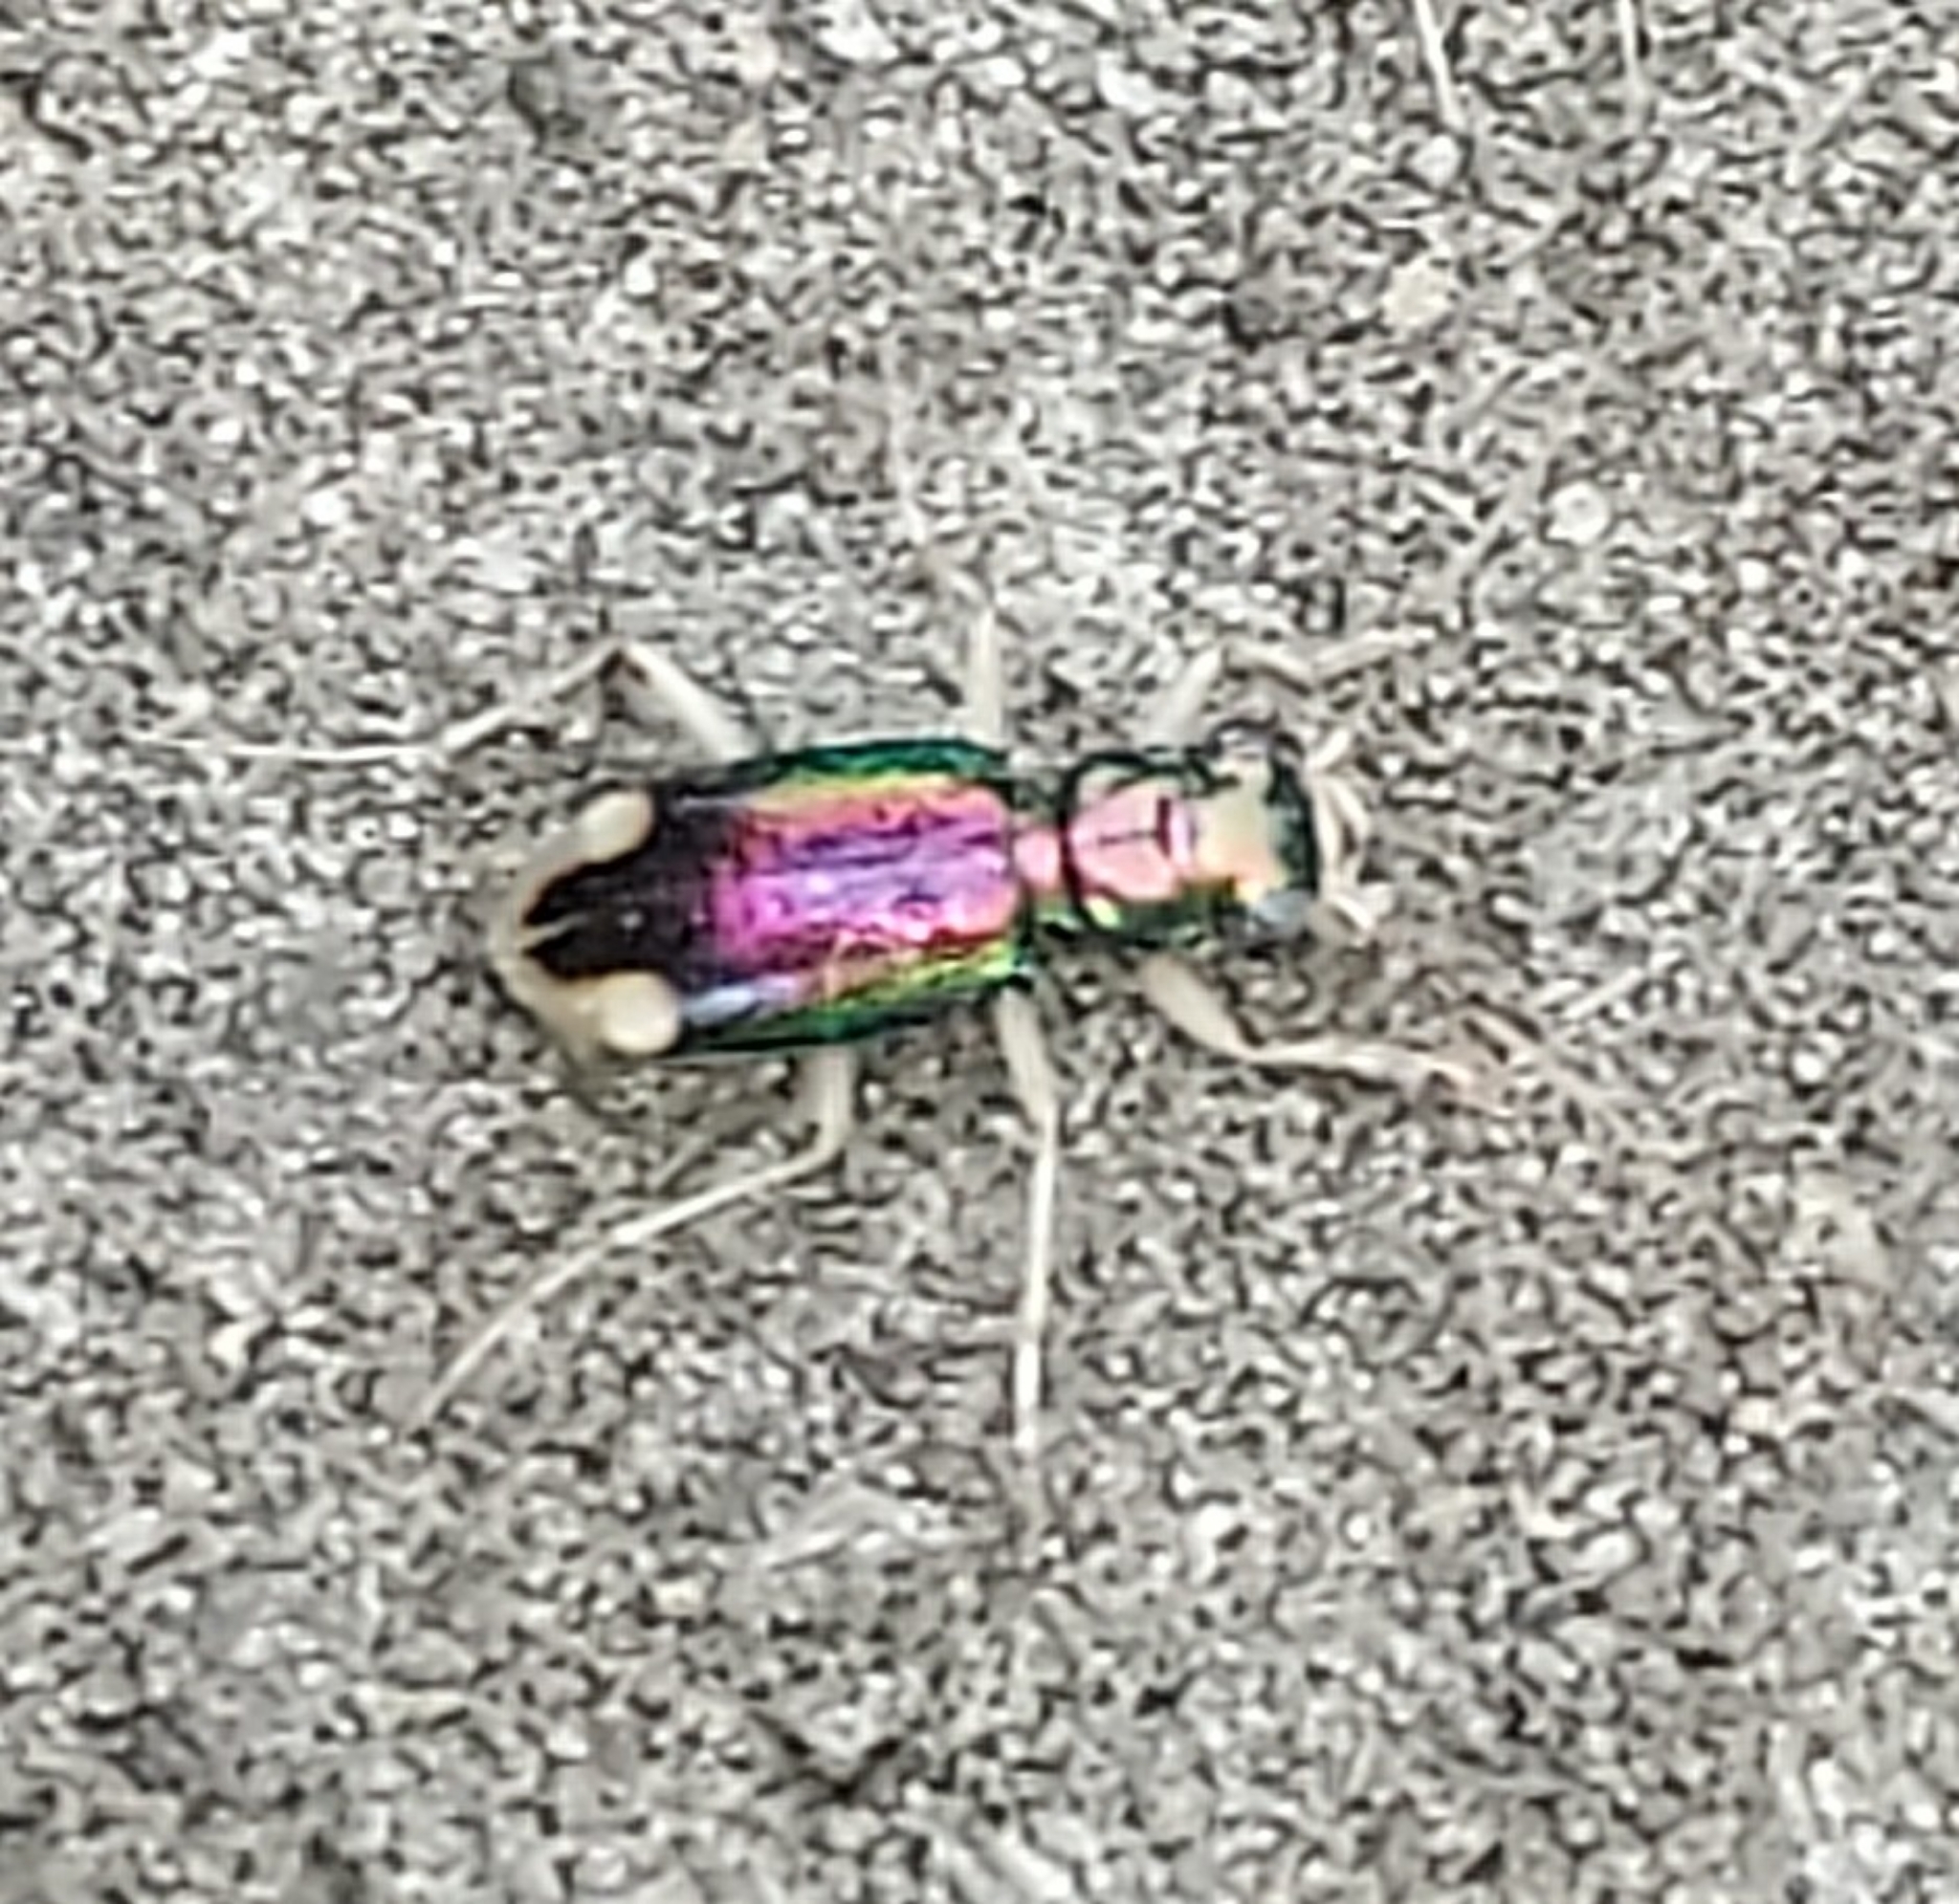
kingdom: Animalia
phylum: Arthropoda
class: Insecta
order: Coleoptera
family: Carabidae
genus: Tetracha
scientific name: Tetracha carolina
